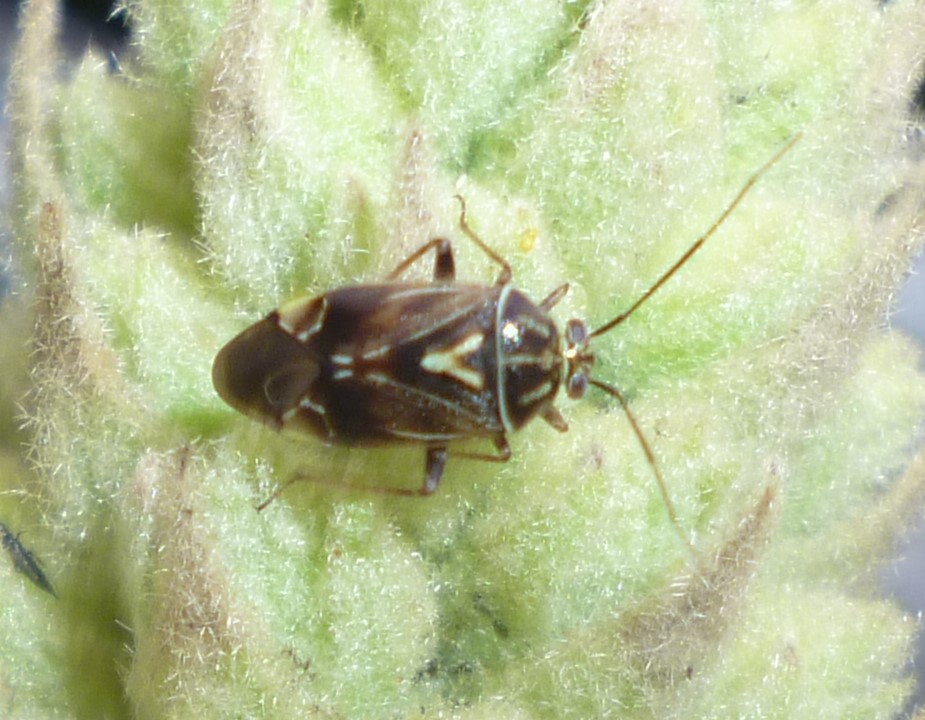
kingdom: Animalia
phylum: Arthropoda
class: Insecta
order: Hemiptera
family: Miridae
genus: Lygus
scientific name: Lygus lineolaris
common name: North american tarnished plant bug
